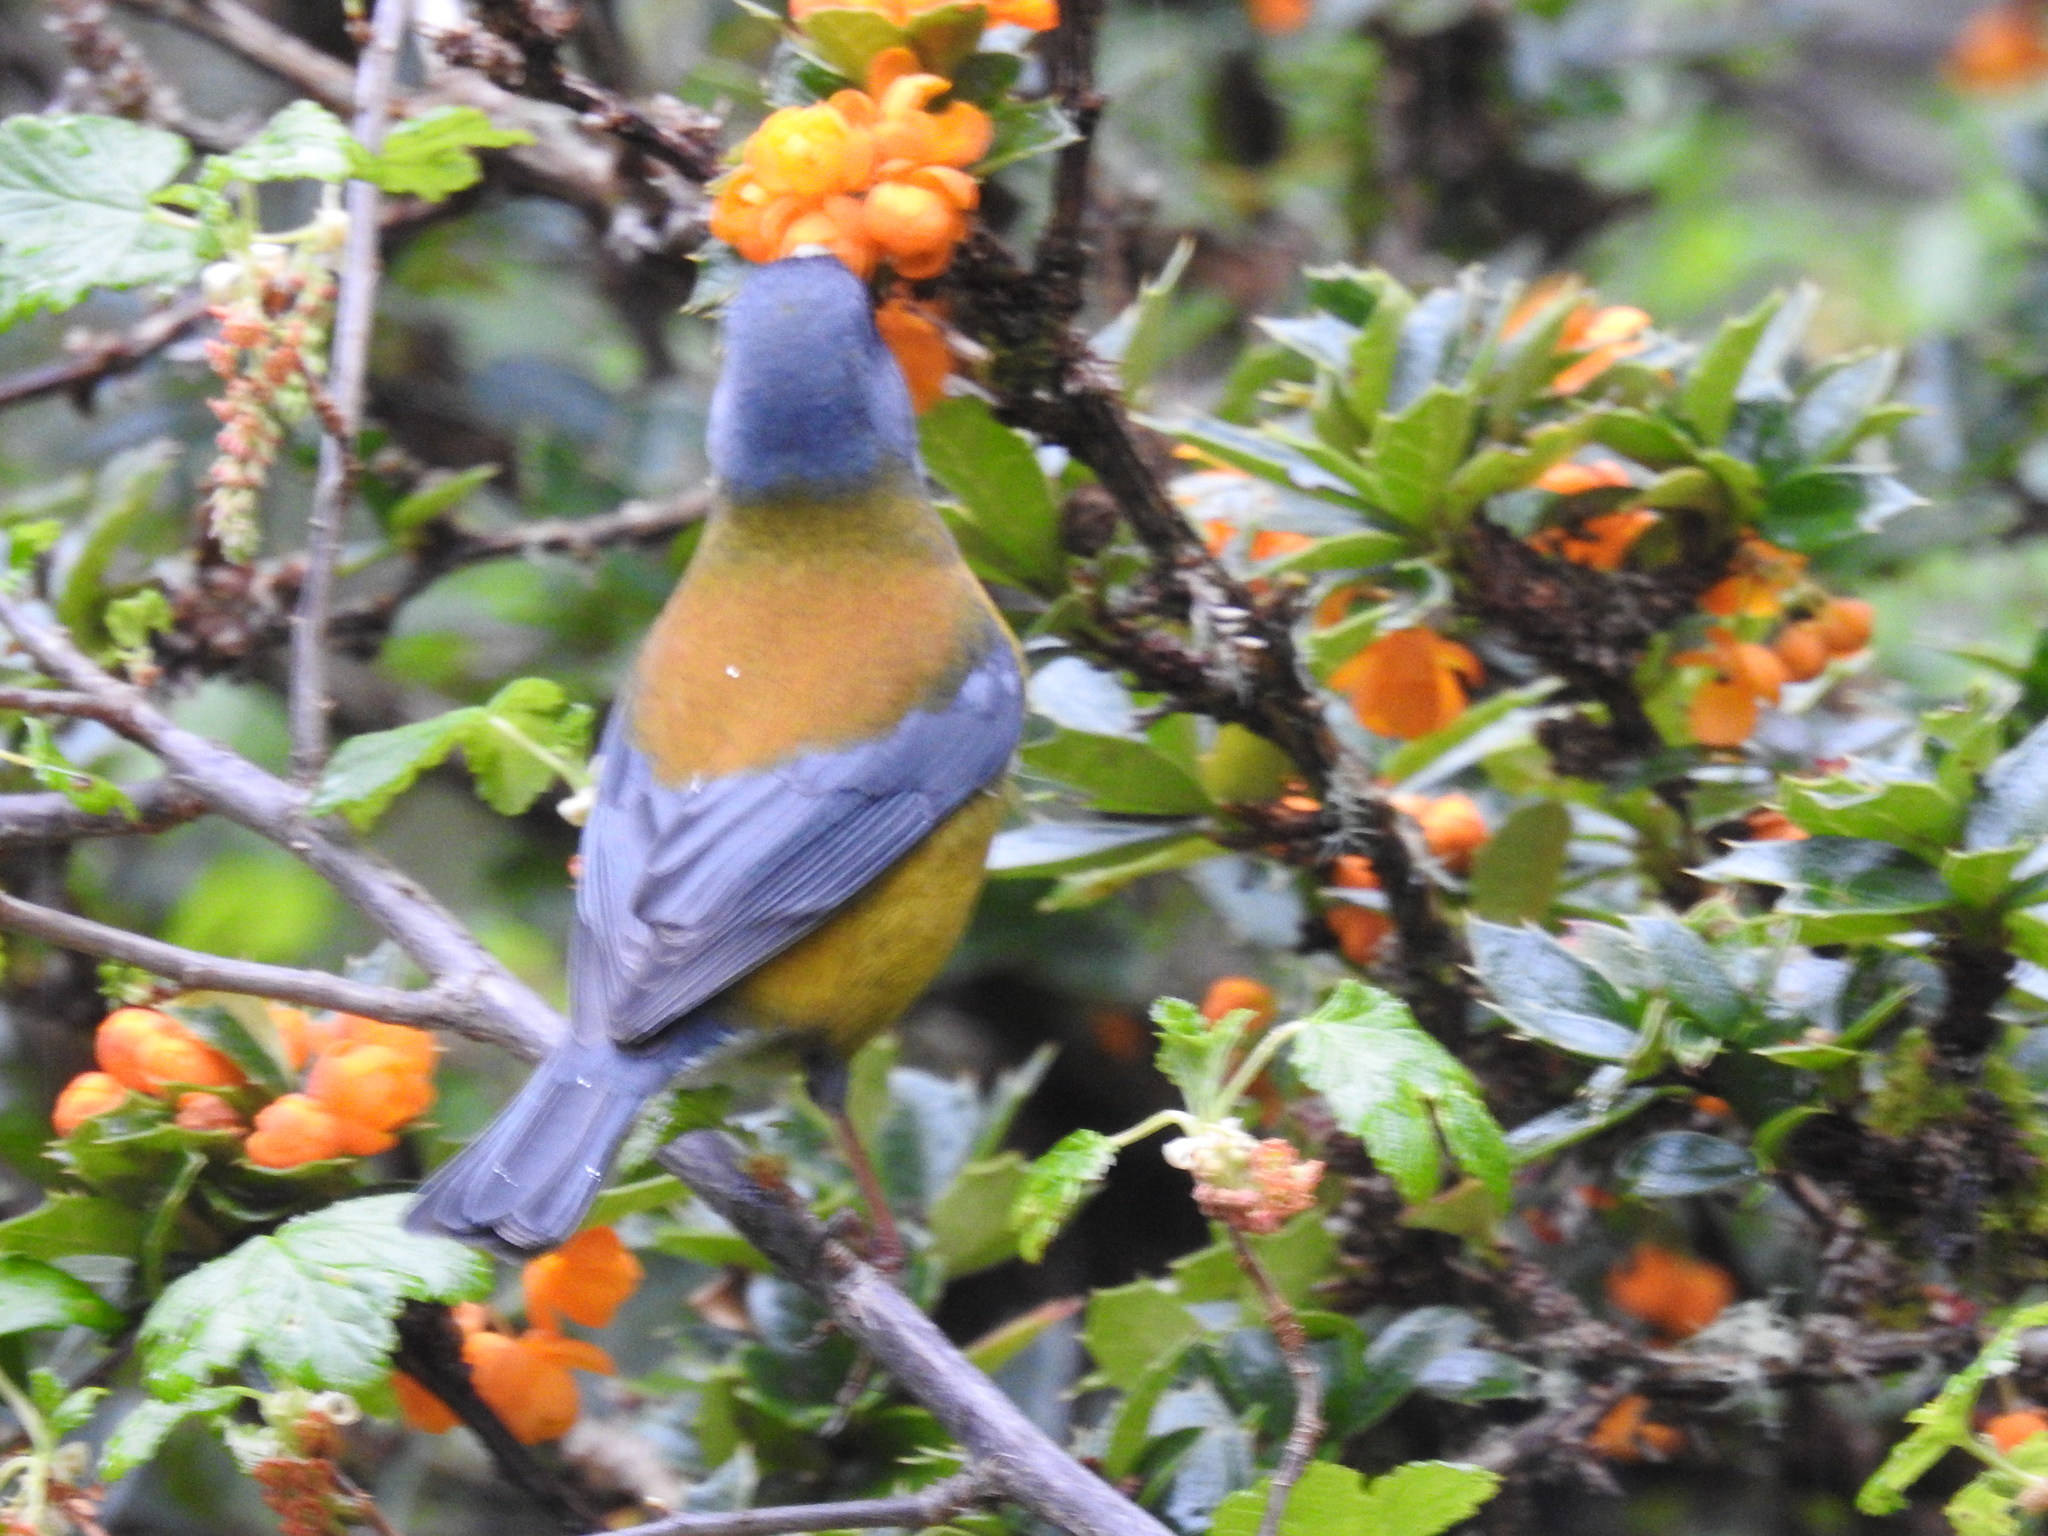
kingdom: Animalia
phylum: Chordata
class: Aves
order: Passeriformes
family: Thraupidae
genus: Phrygilus
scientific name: Phrygilus patagonicus
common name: Patagonian sierra finch
